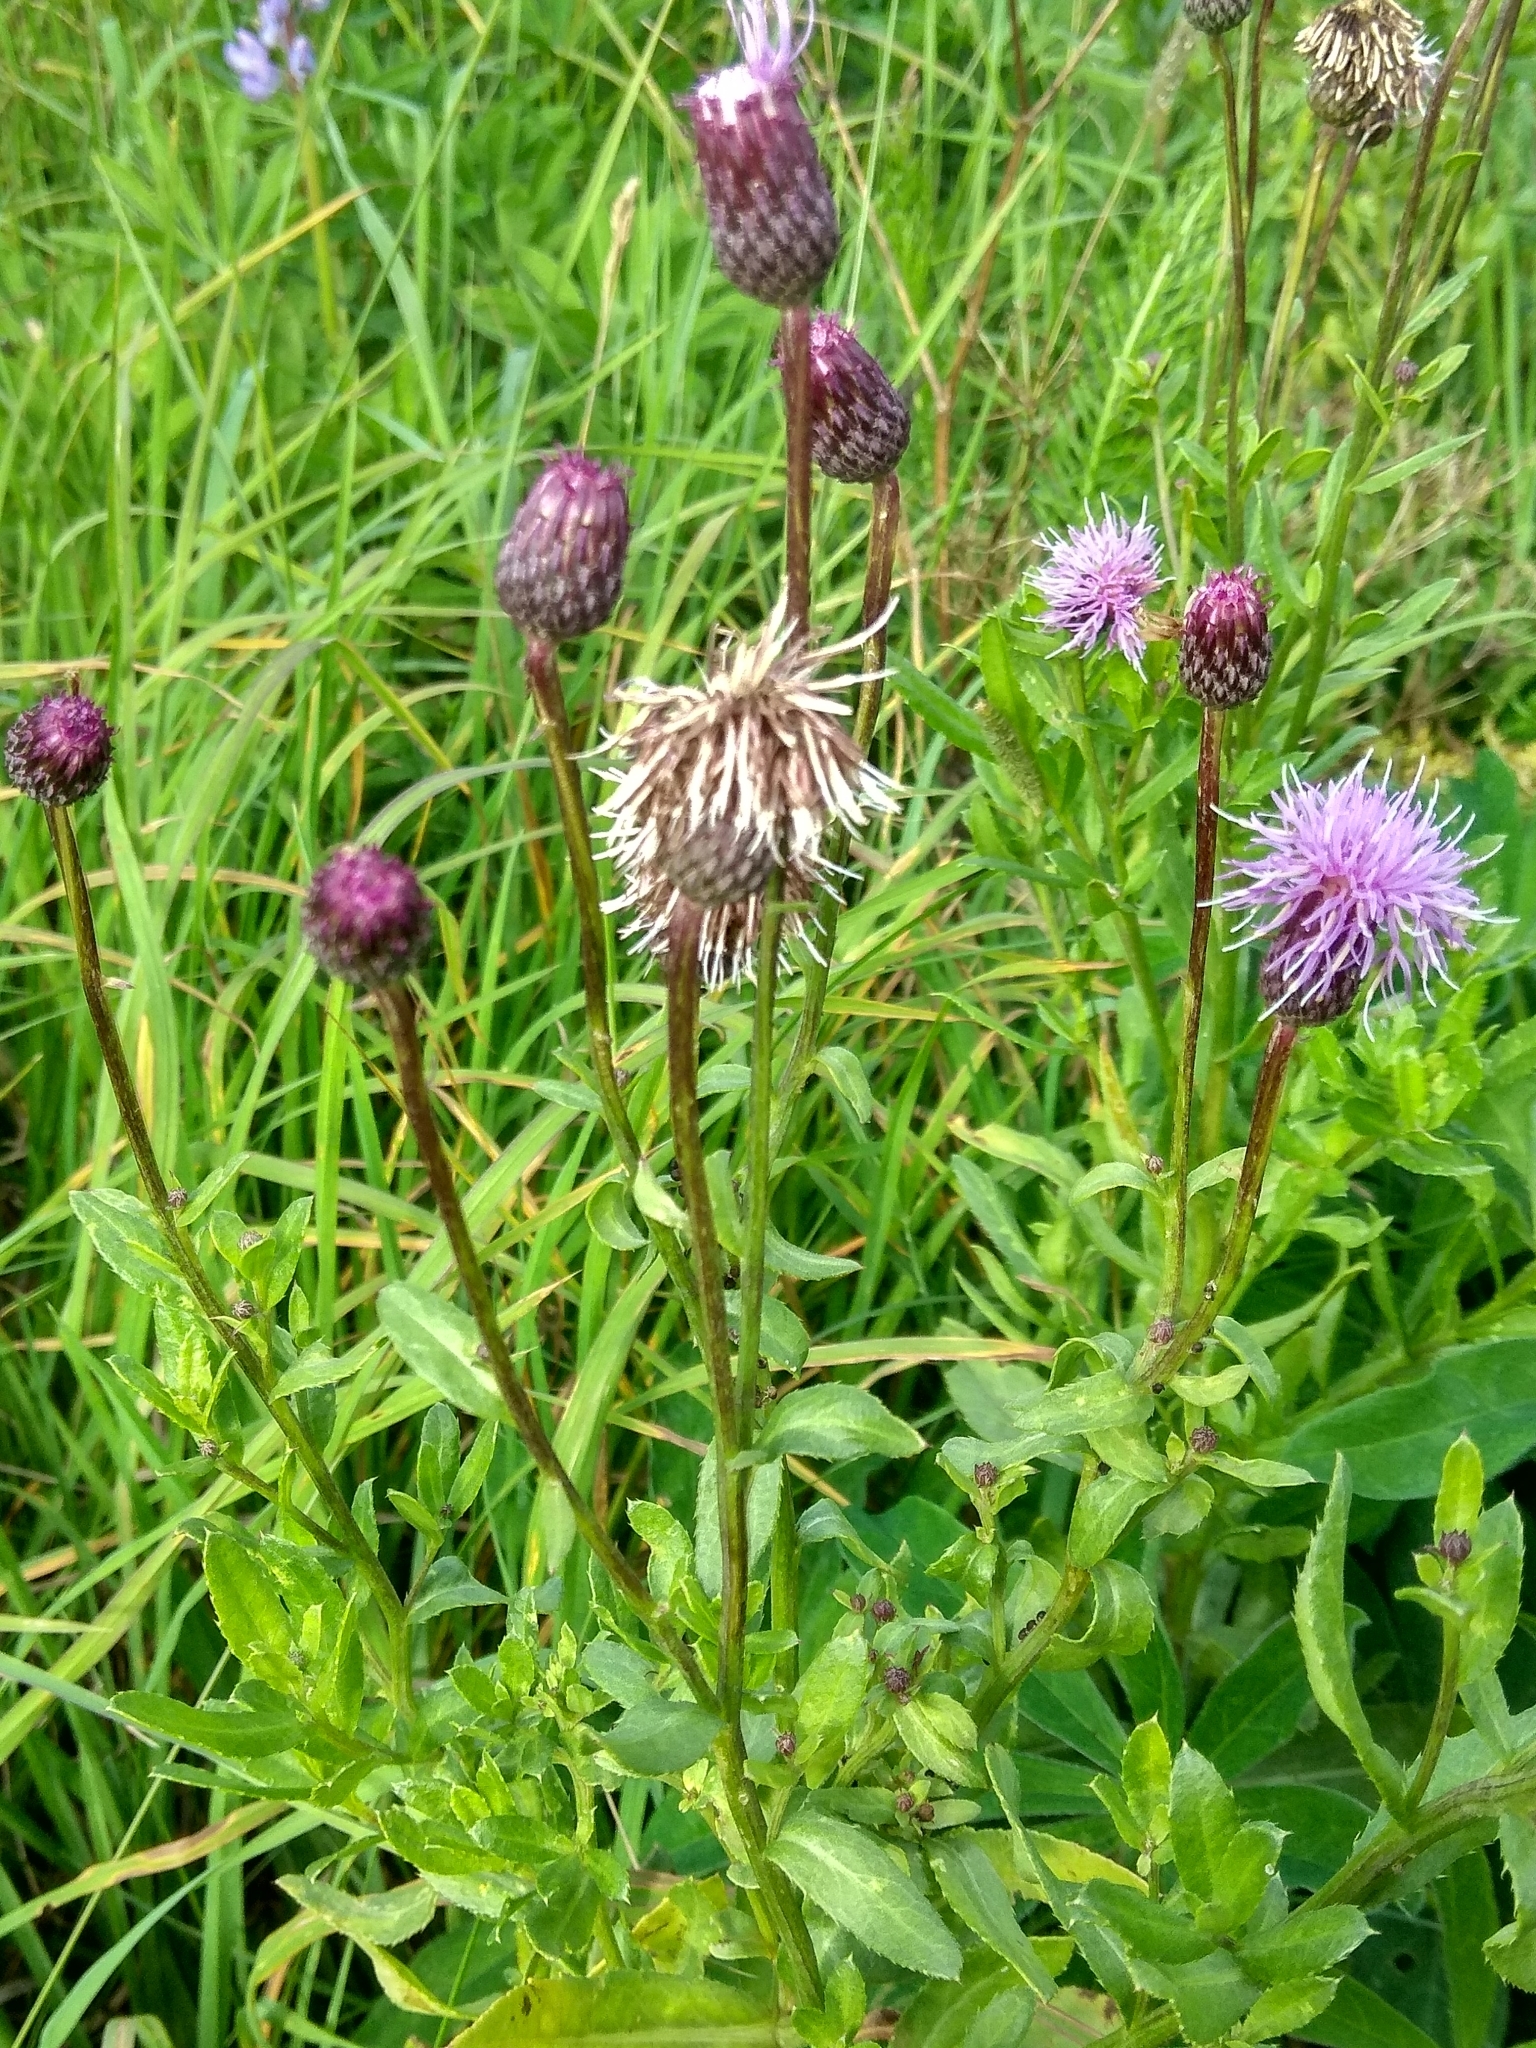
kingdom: Plantae
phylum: Tracheophyta
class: Magnoliopsida
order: Asterales
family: Asteraceae
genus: Cirsium
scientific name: Cirsium arvense
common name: Creeping thistle
